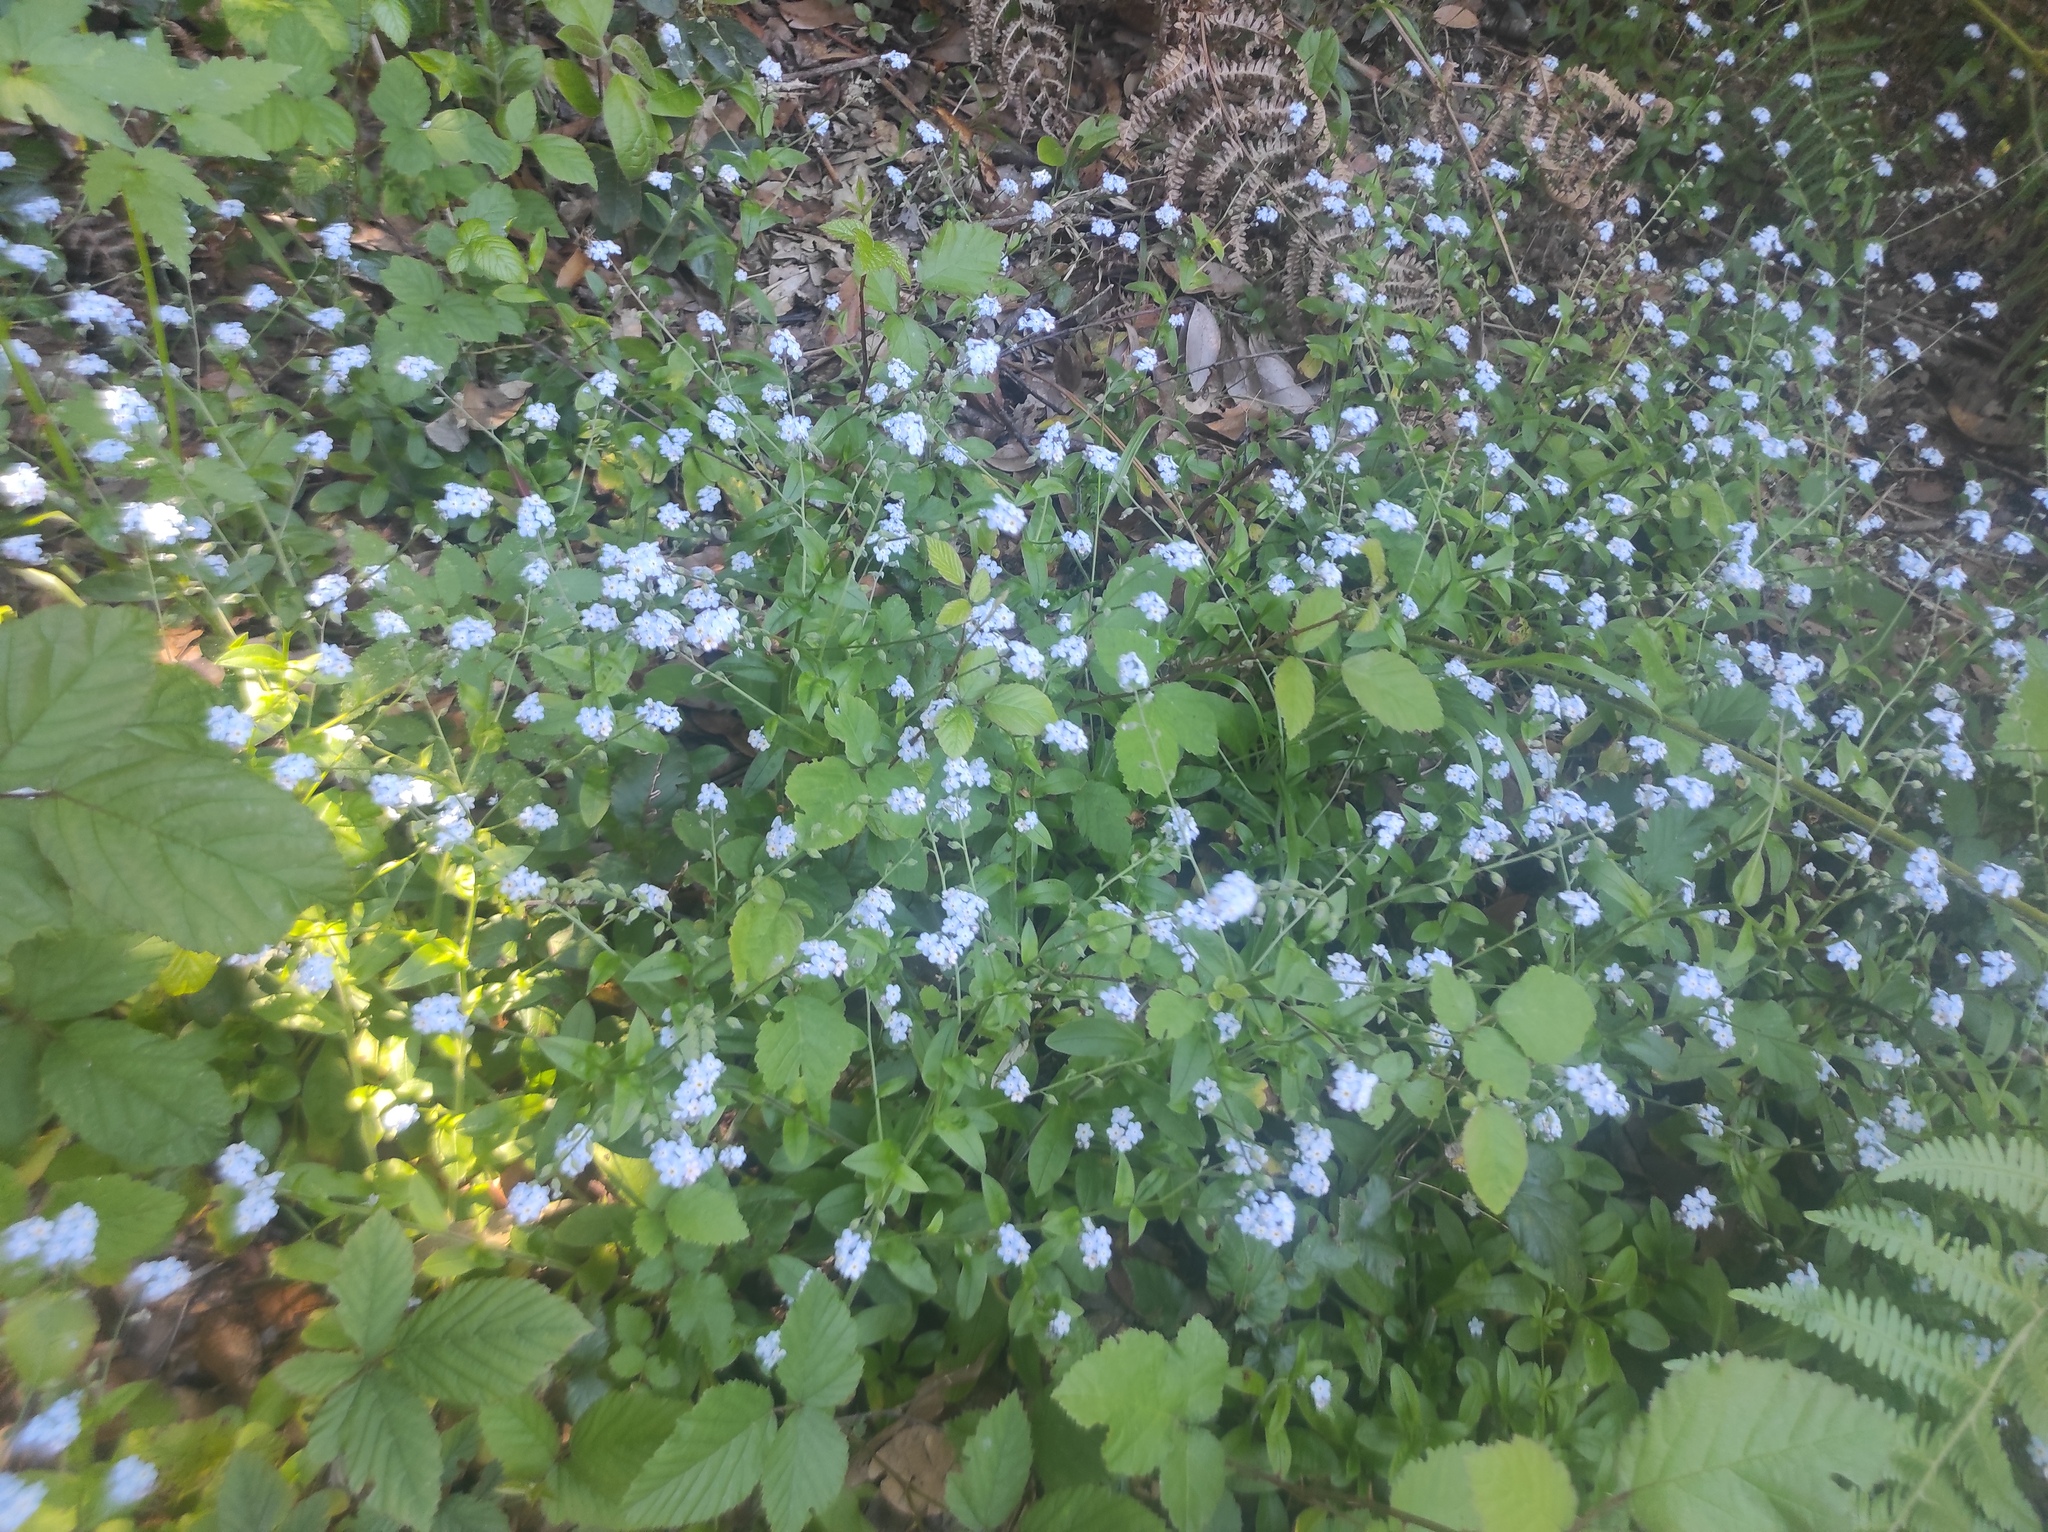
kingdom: Plantae
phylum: Tracheophyta
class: Magnoliopsida
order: Boraginales
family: Boraginaceae
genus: Myosotis
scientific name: Myosotis latifolia
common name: Broadleaf forget-me-not
